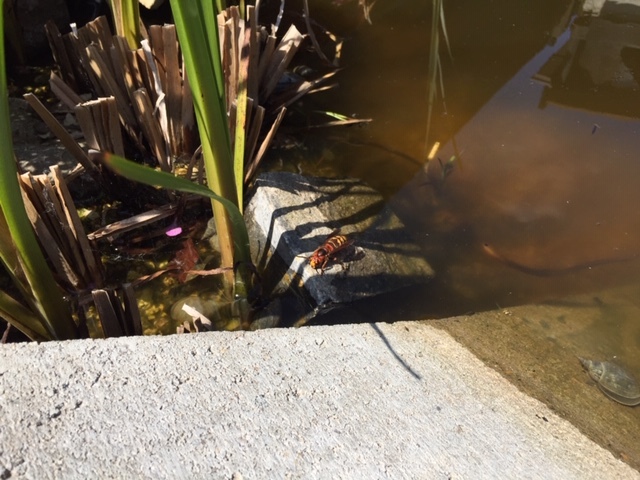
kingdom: Animalia
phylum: Arthropoda
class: Insecta
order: Hymenoptera
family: Vespidae
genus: Vespa
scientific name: Vespa crabro
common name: Hornet
